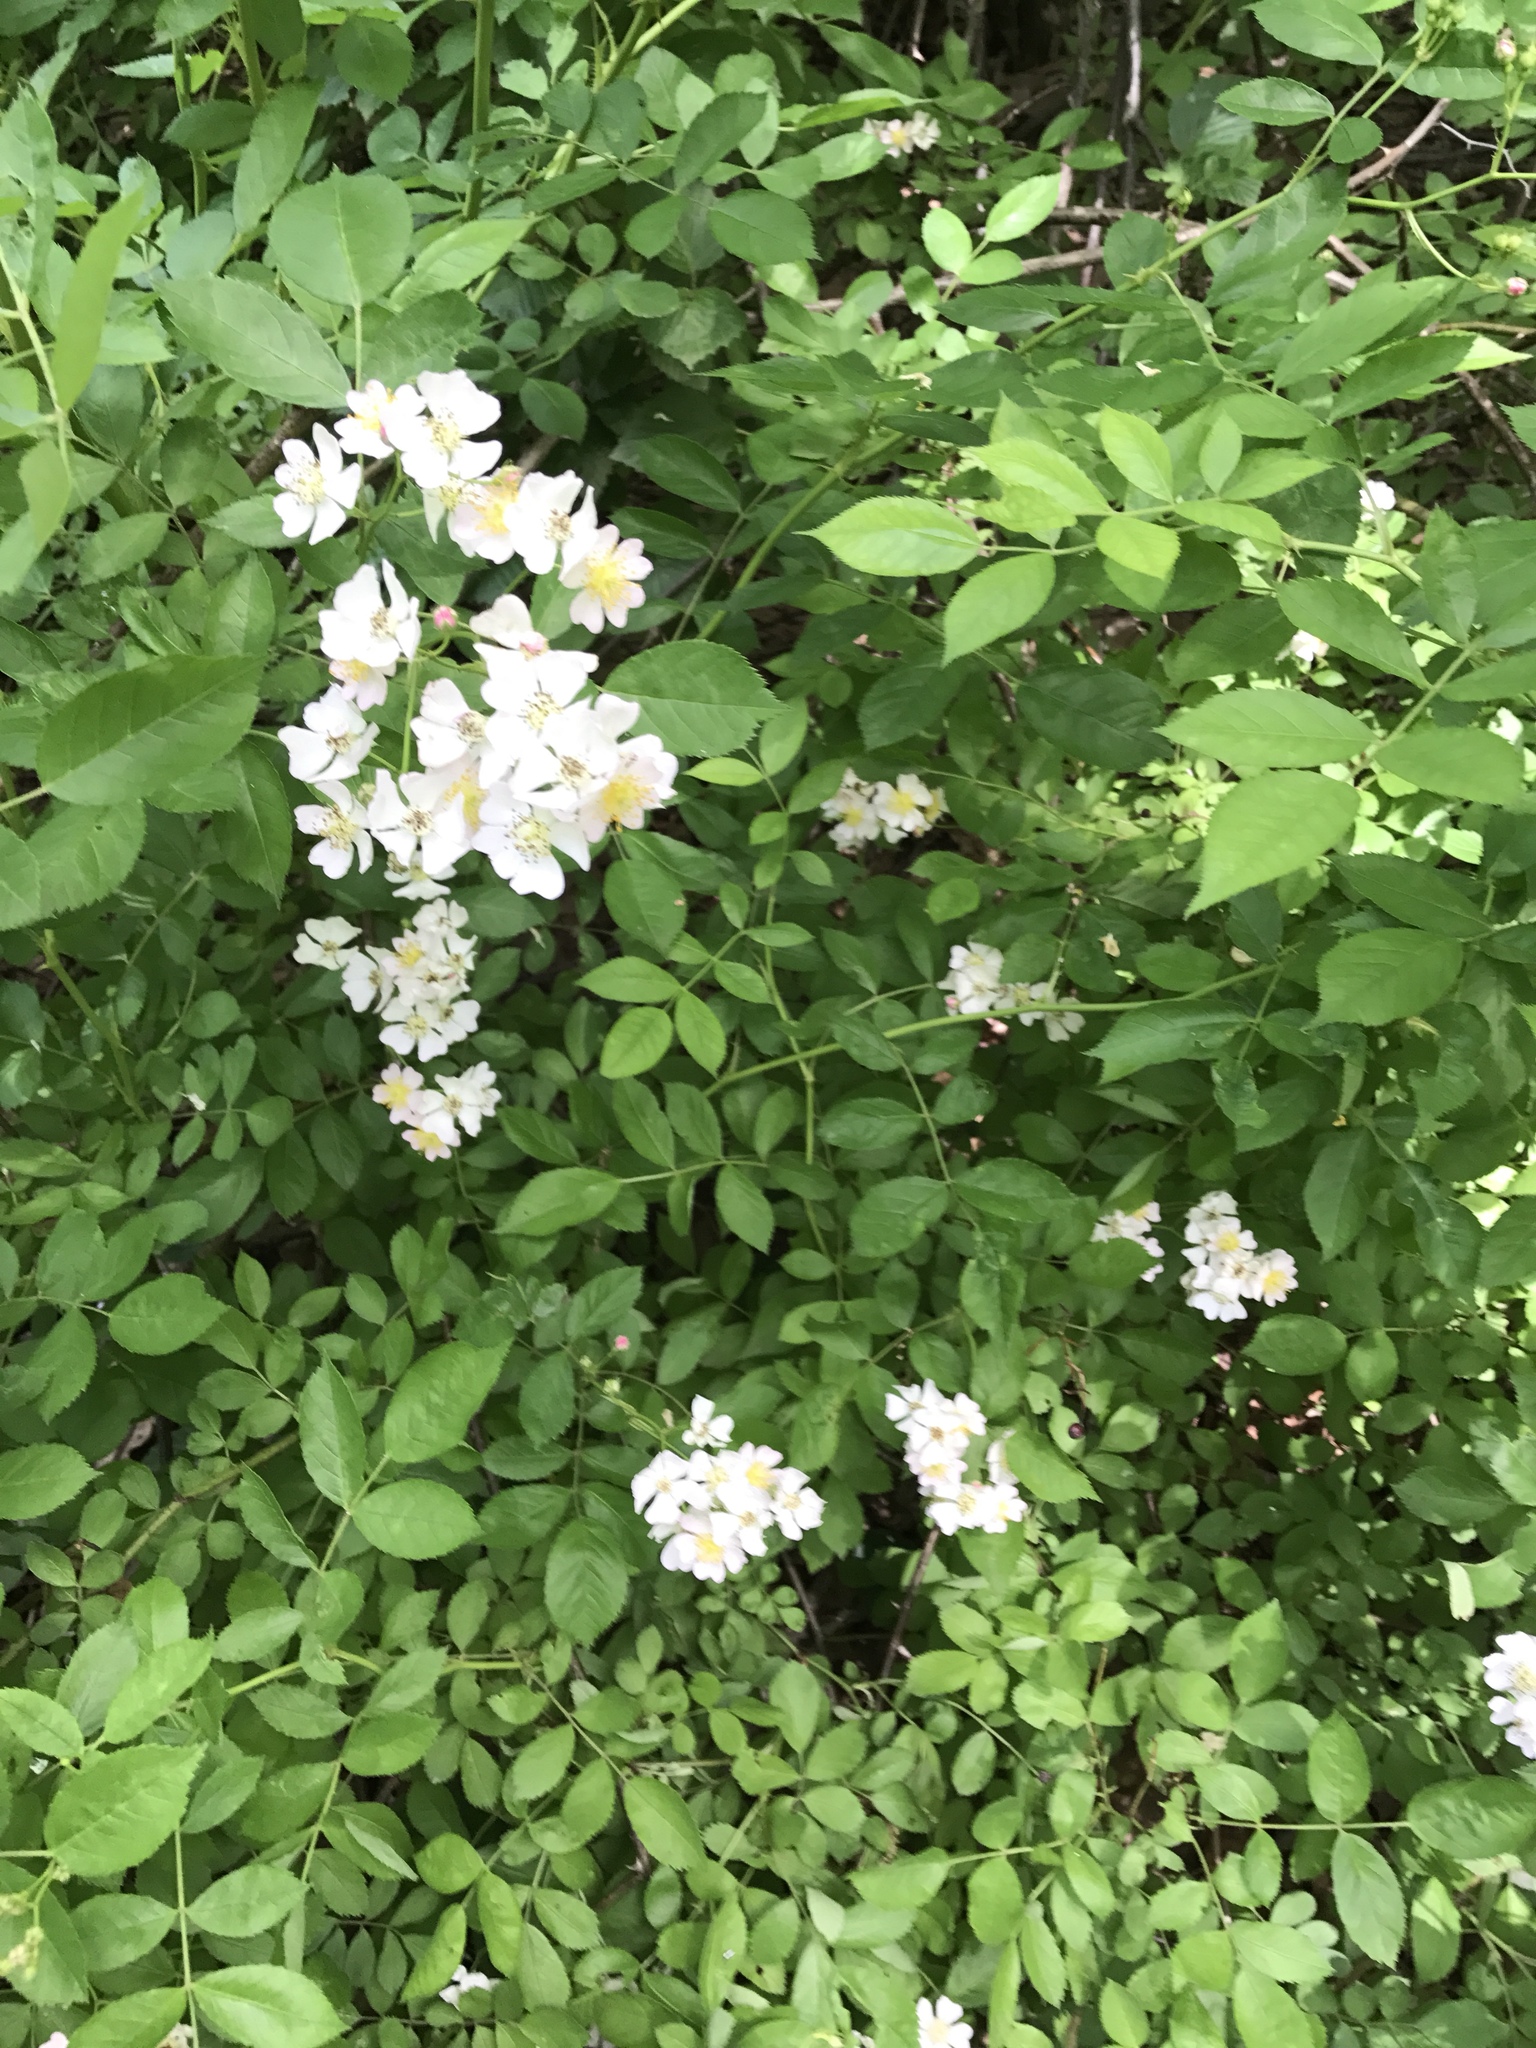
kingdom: Plantae
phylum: Tracheophyta
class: Magnoliopsida
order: Rosales
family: Rosaceae
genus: Rosa
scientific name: Rosa multiflora
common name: Multiflora rose
